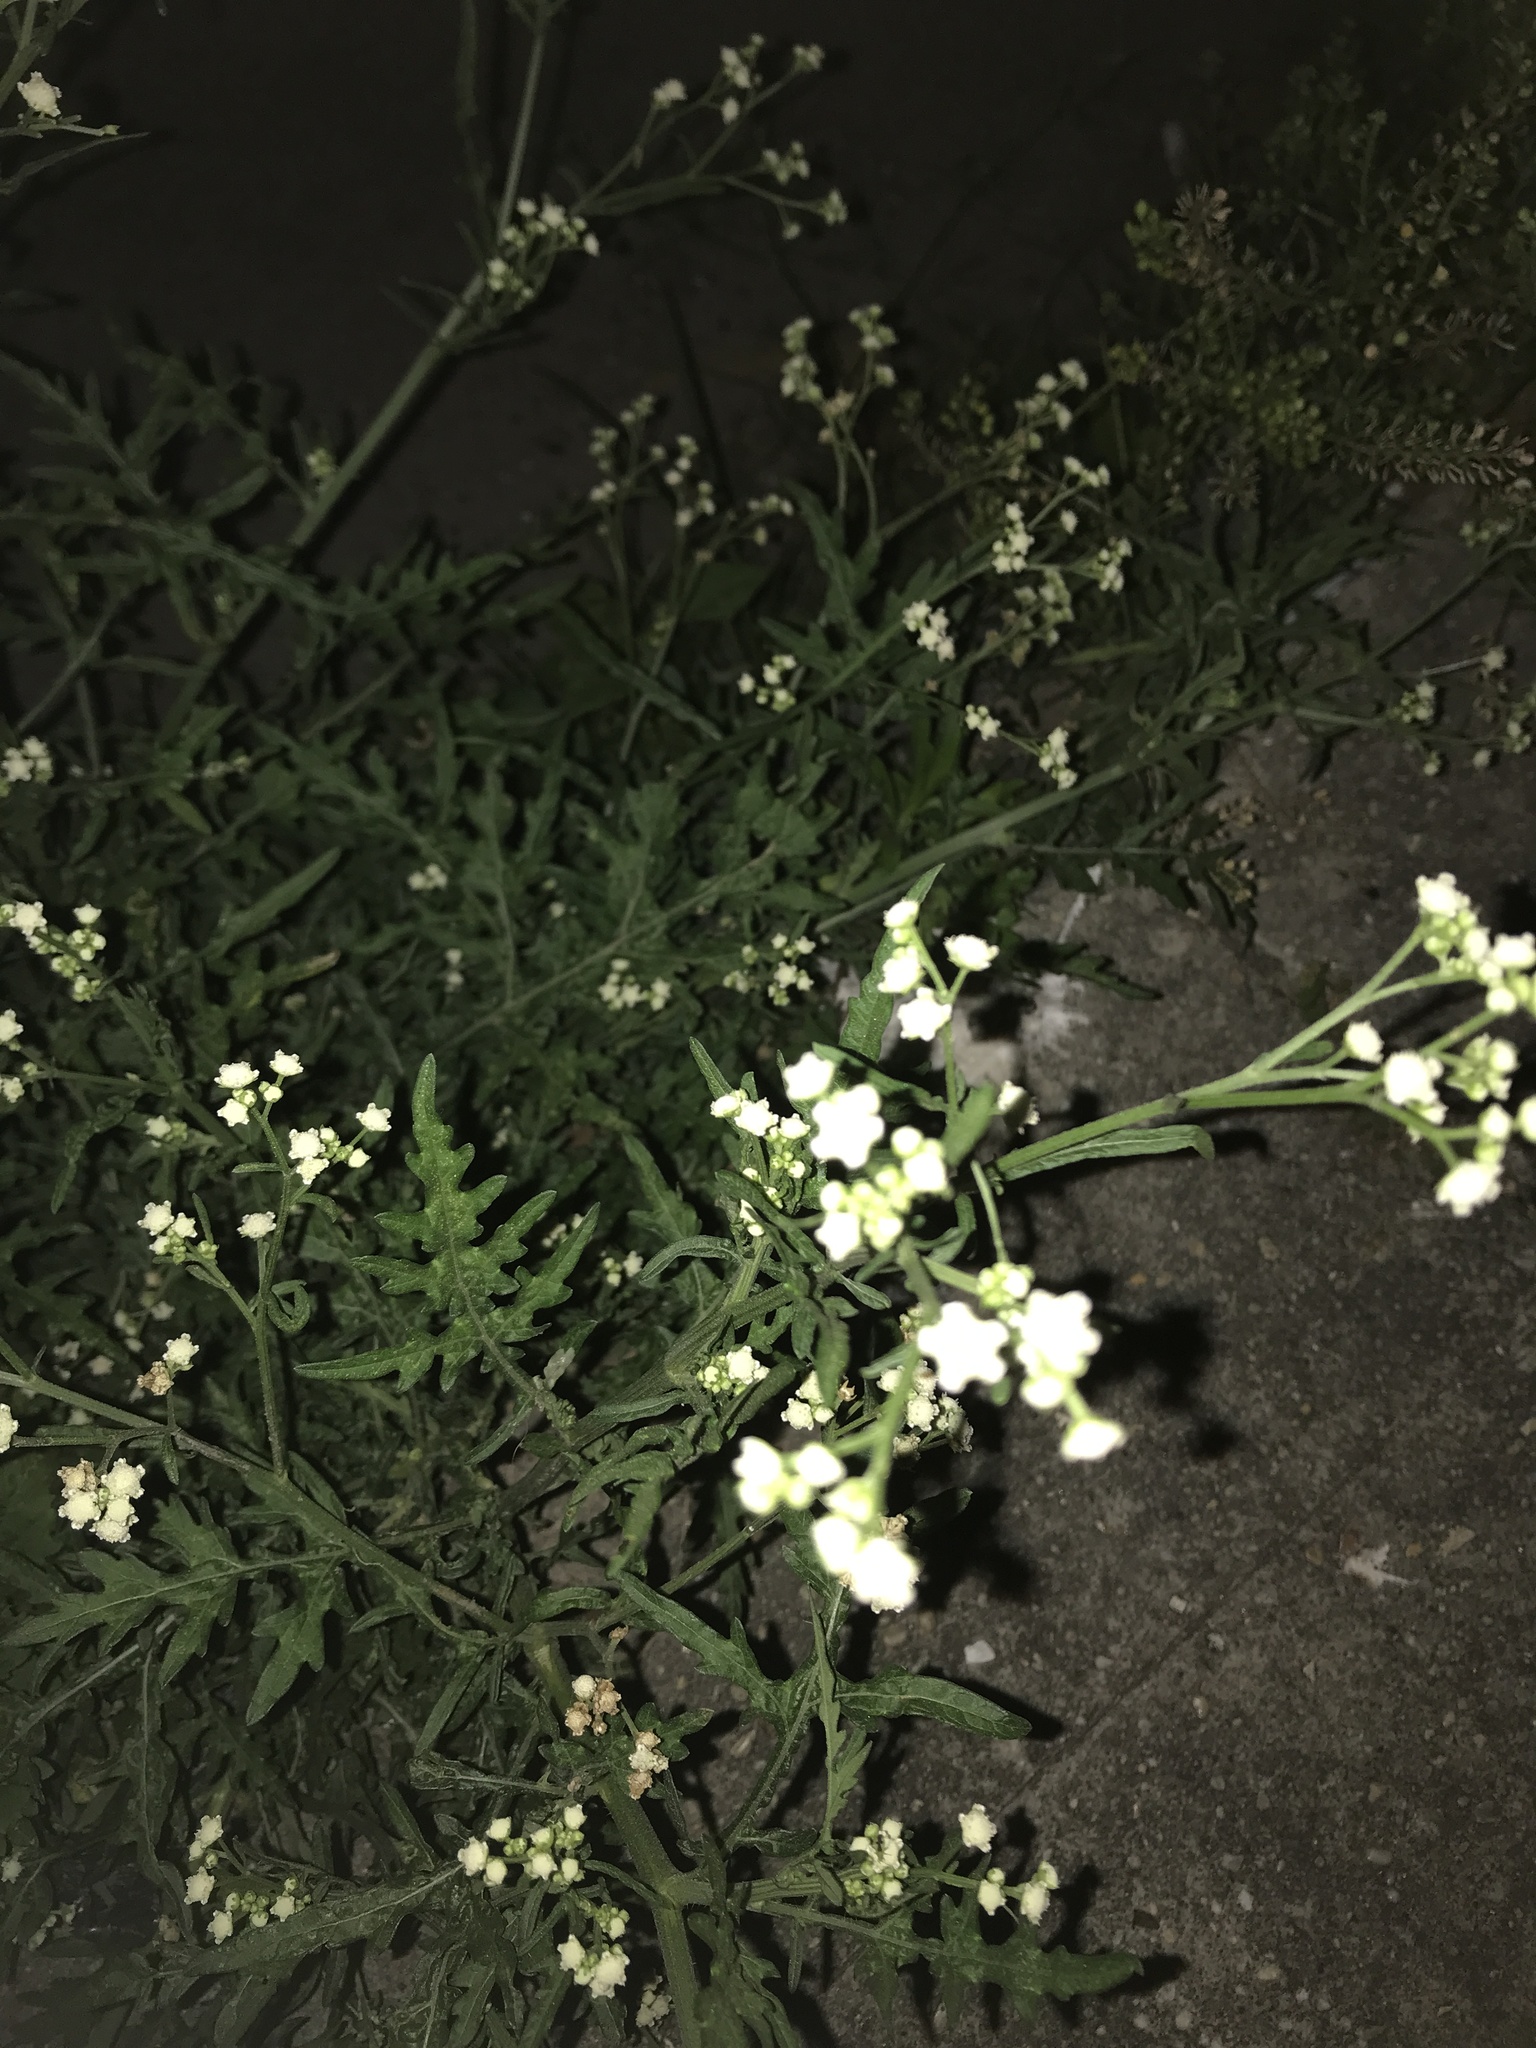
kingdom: Plantae
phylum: Tracheophyta
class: Magnoliopsida
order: Asterales
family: Asteraceae
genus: Parthenium
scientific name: Parthenium hysterophorus
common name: Santa maria feverfew
